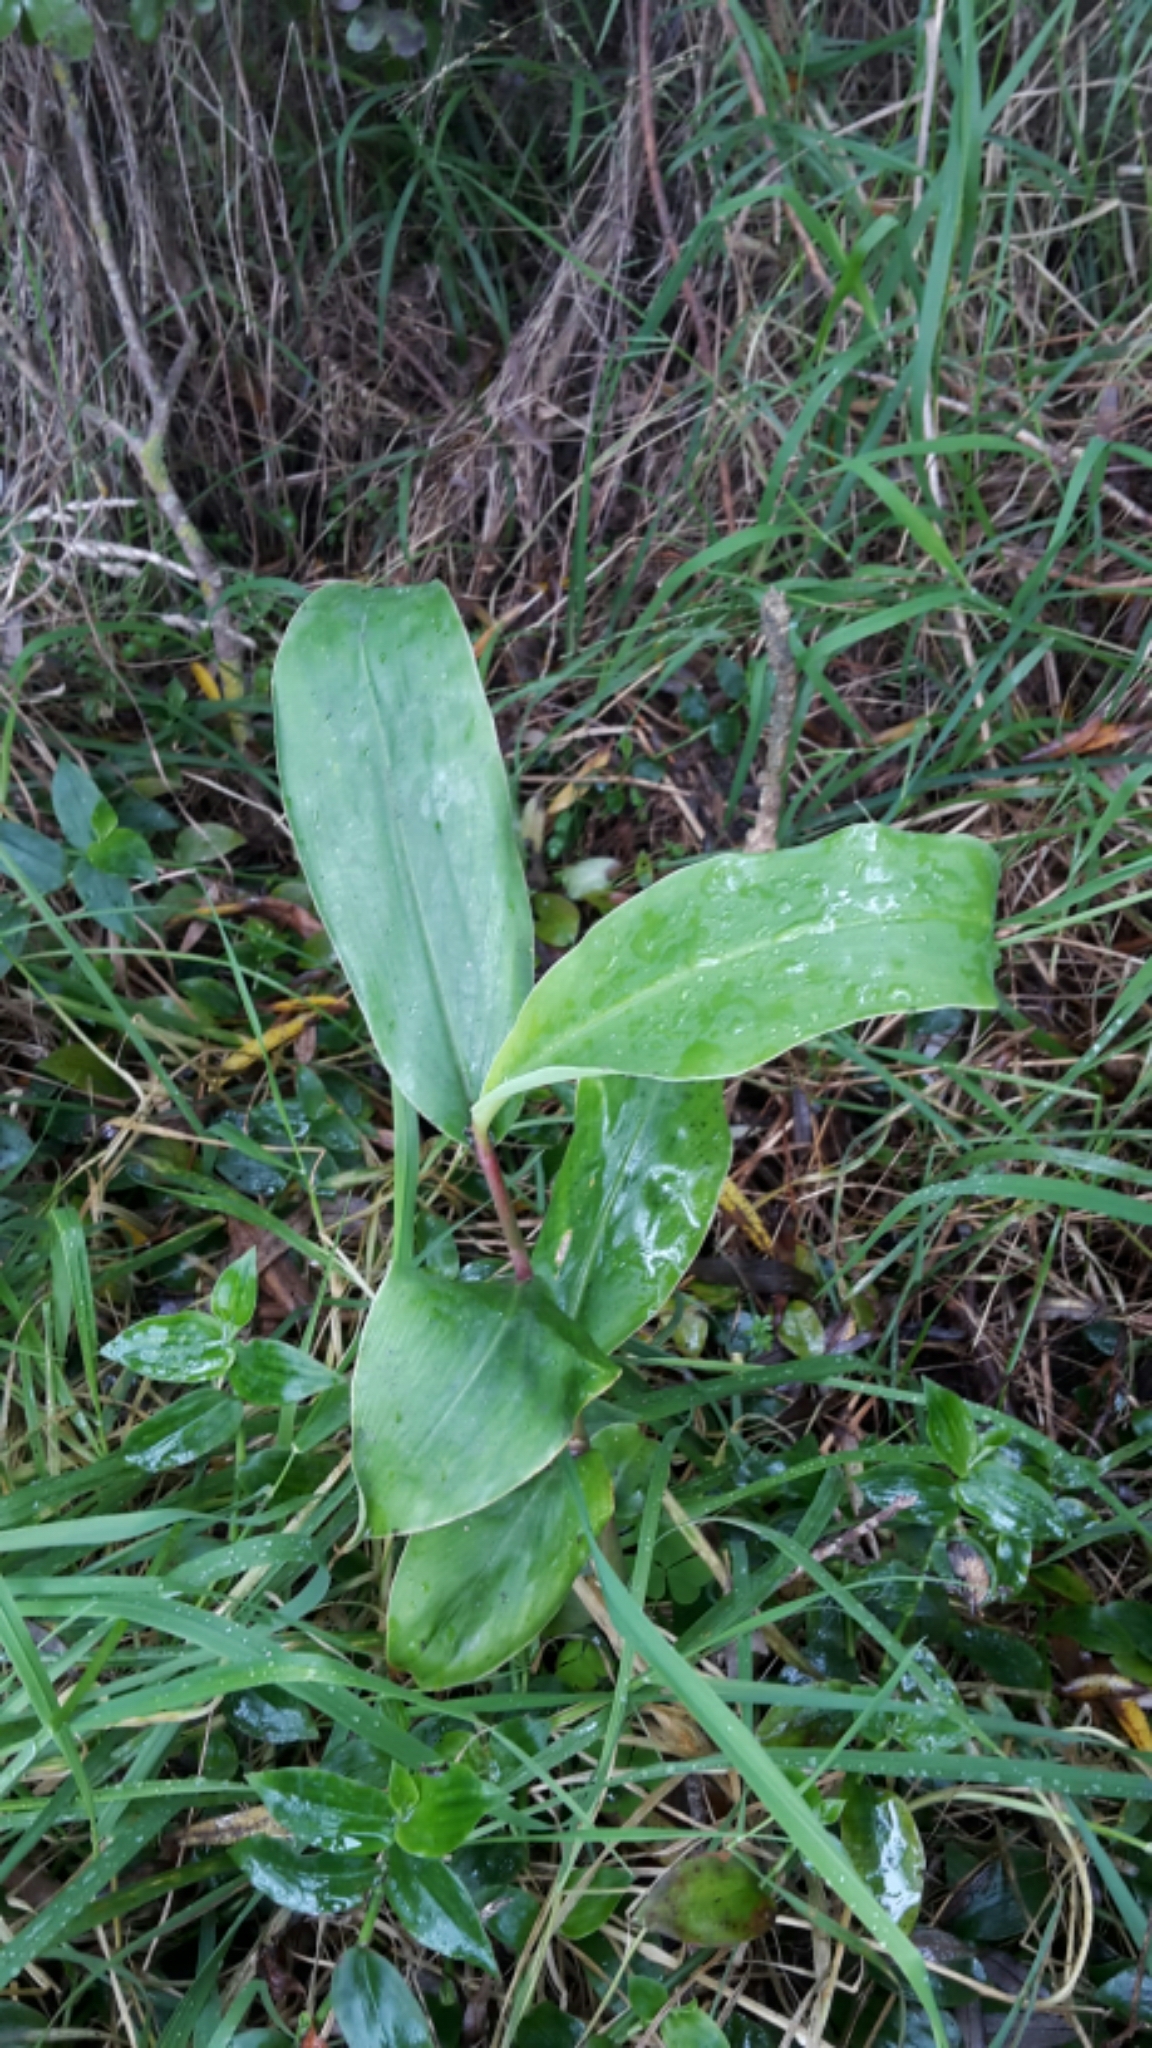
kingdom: Plantae
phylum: Tracheophyta
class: Liliopsida
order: Zingiberales
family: Zingiberaceae
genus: Hedychium
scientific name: Hedychium gardnerianum
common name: Himalayan ginger
